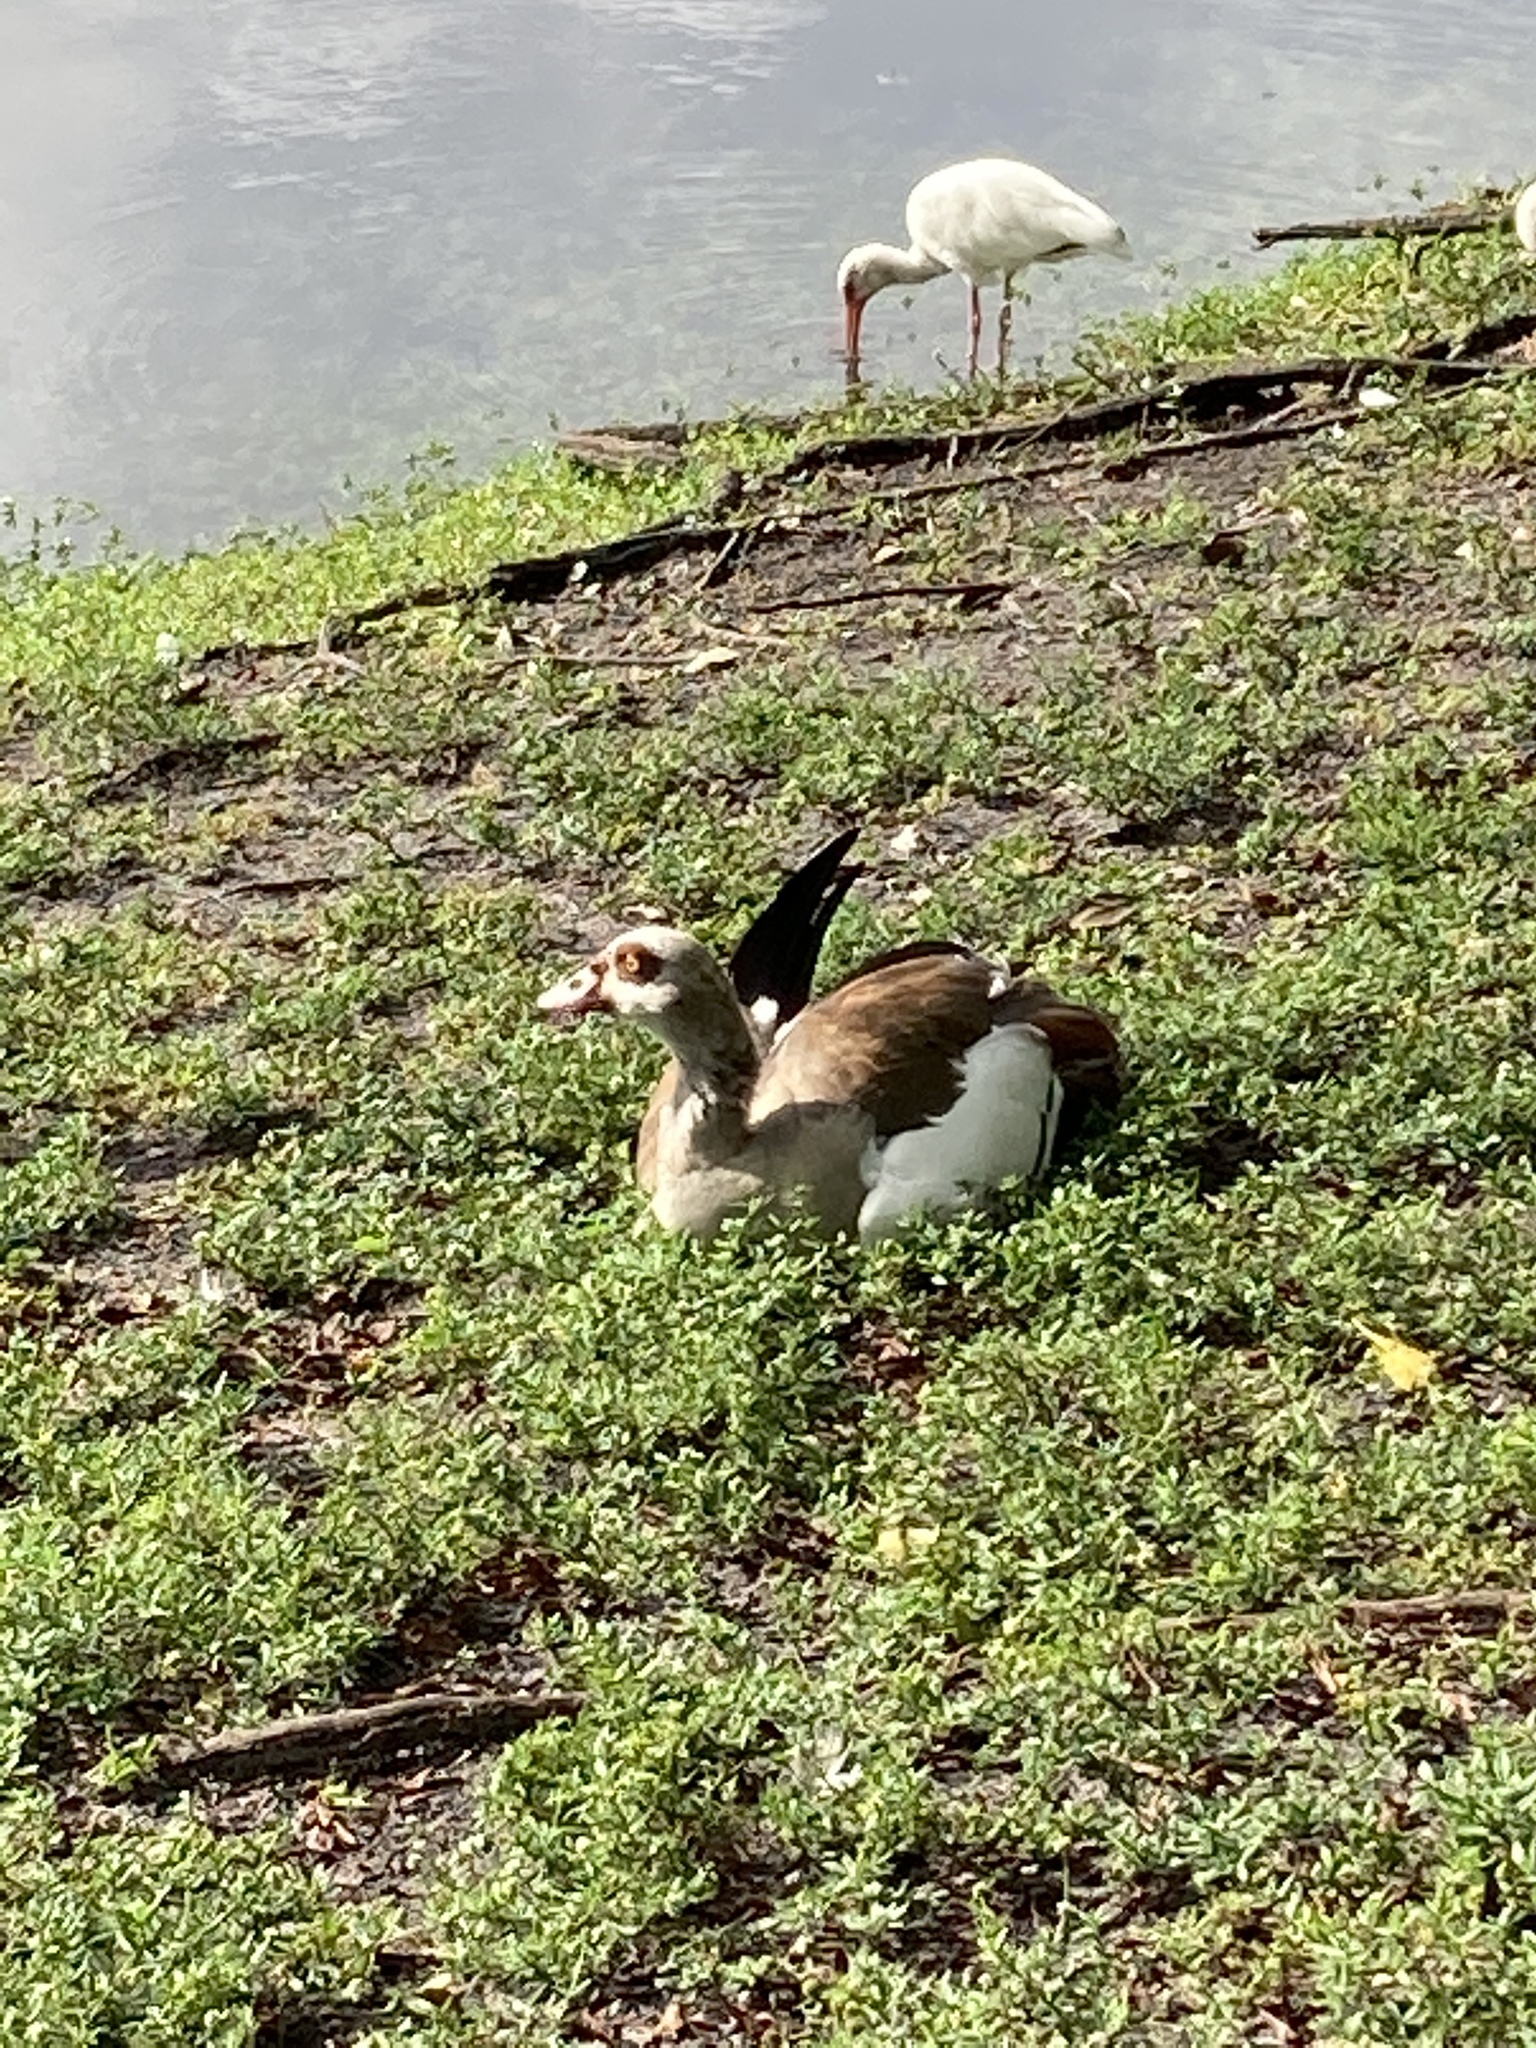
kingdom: Animalia
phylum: Chordata
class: Aves
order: Anseriformes
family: Anatidae
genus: Alopochen
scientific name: Alopochen aegyptiaca
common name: Egyptian goose
